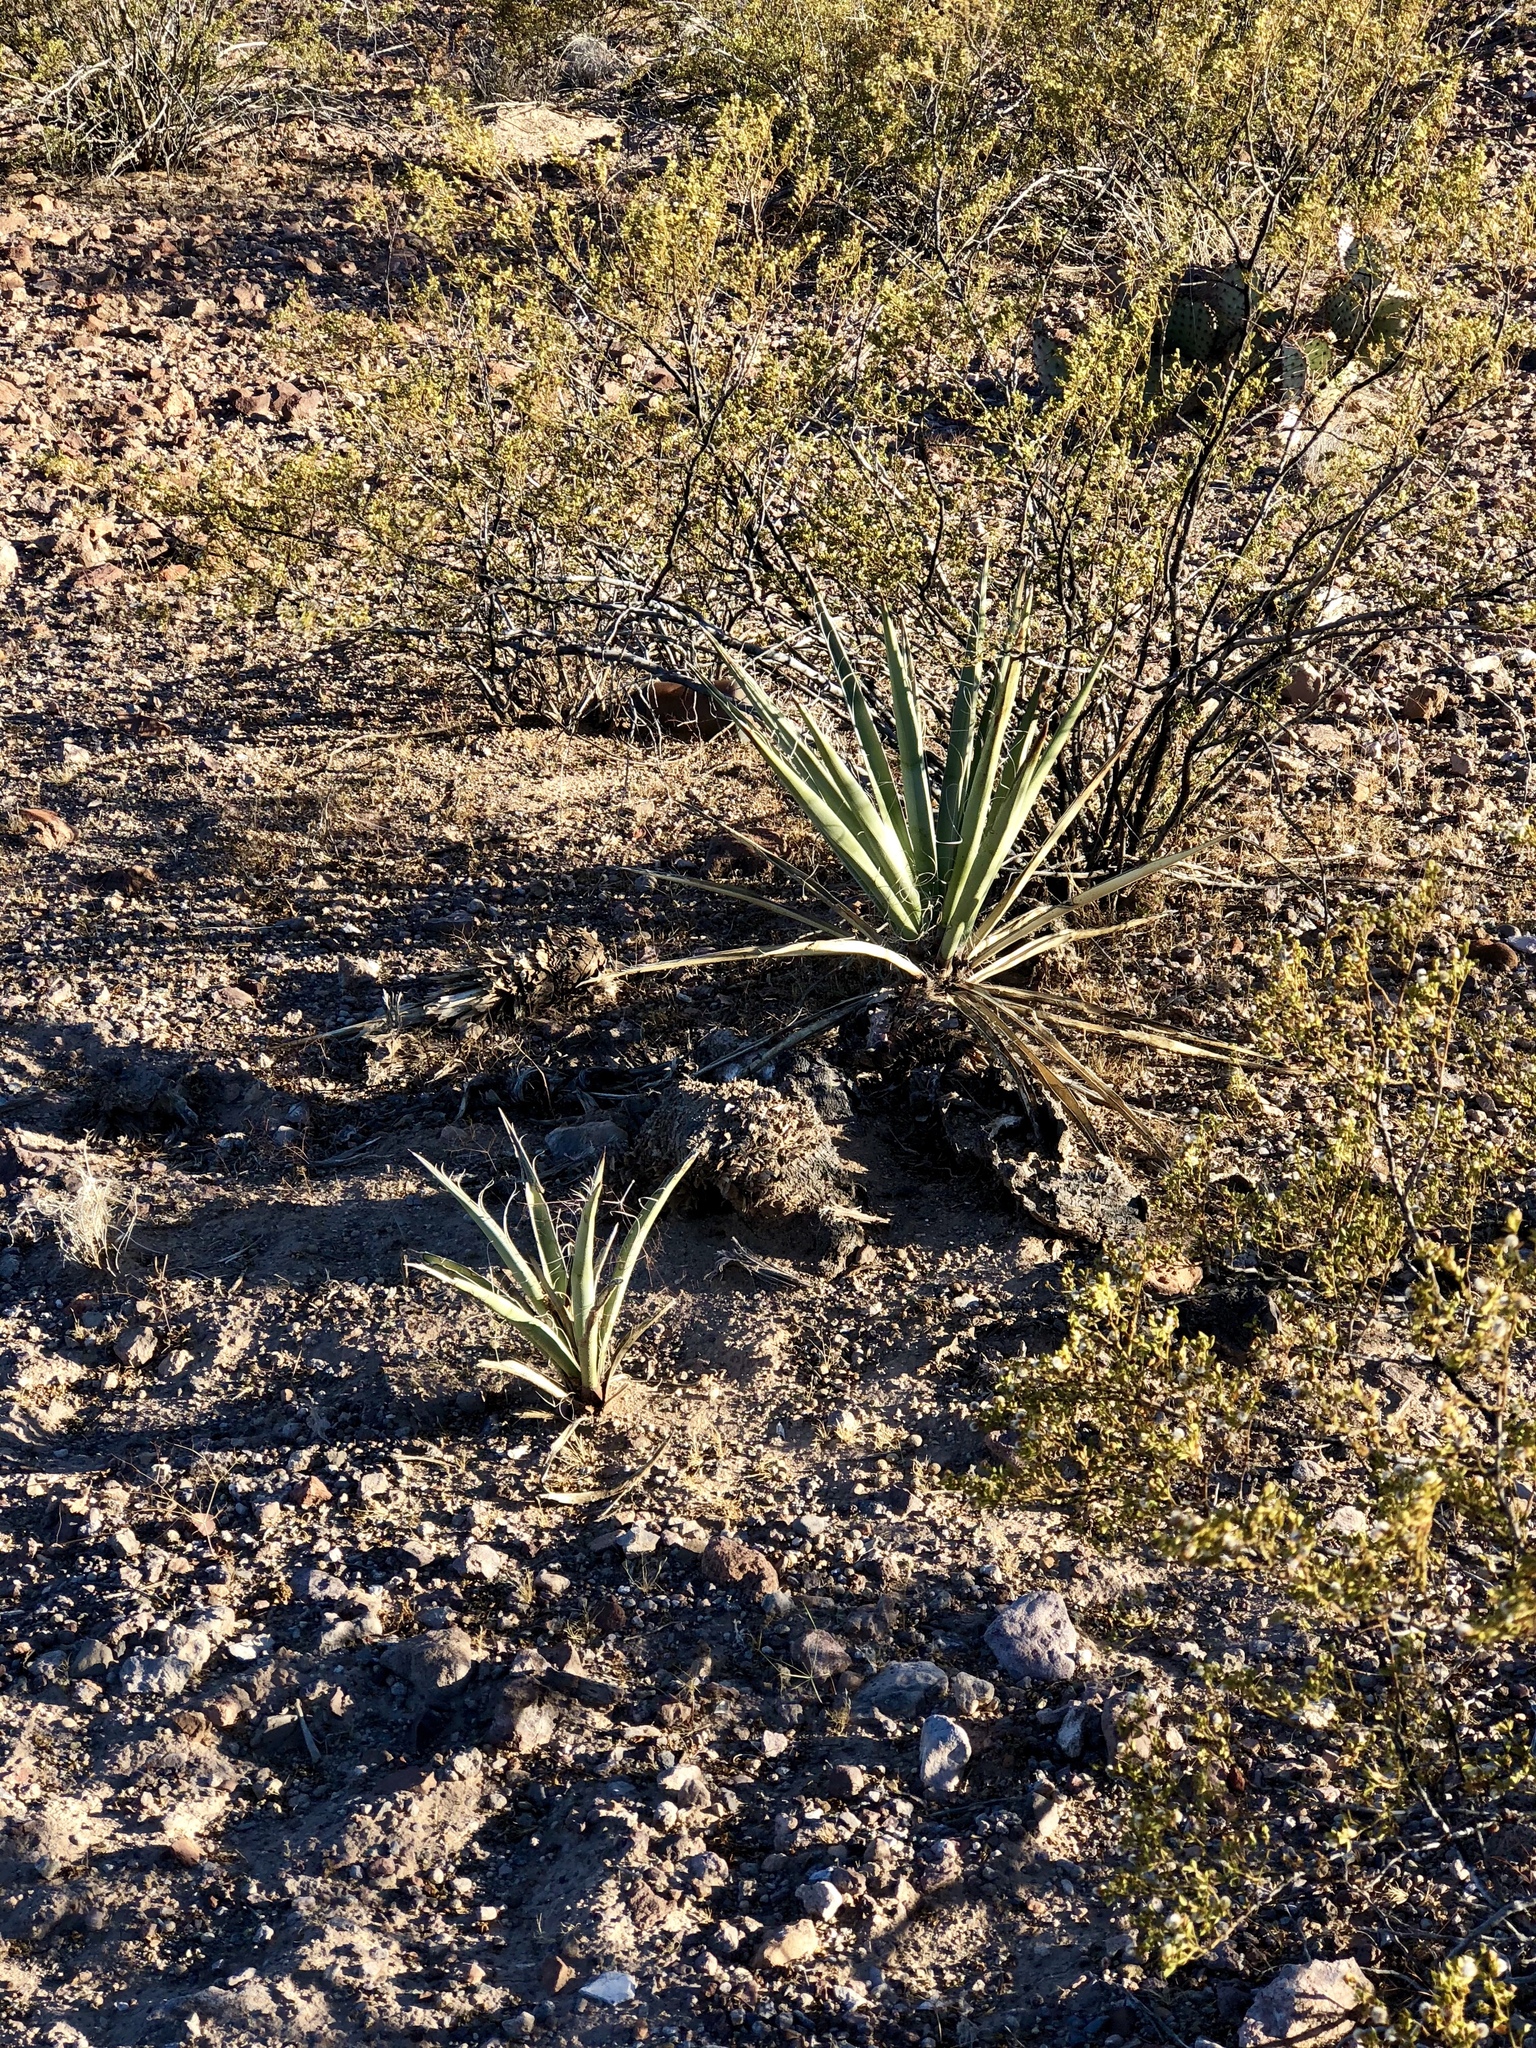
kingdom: Plantae
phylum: Tracheophyta
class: Liliopsida
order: Asparagales
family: Asparagaceae
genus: Yucca
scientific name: Yucca baccata
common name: Banana yucca
